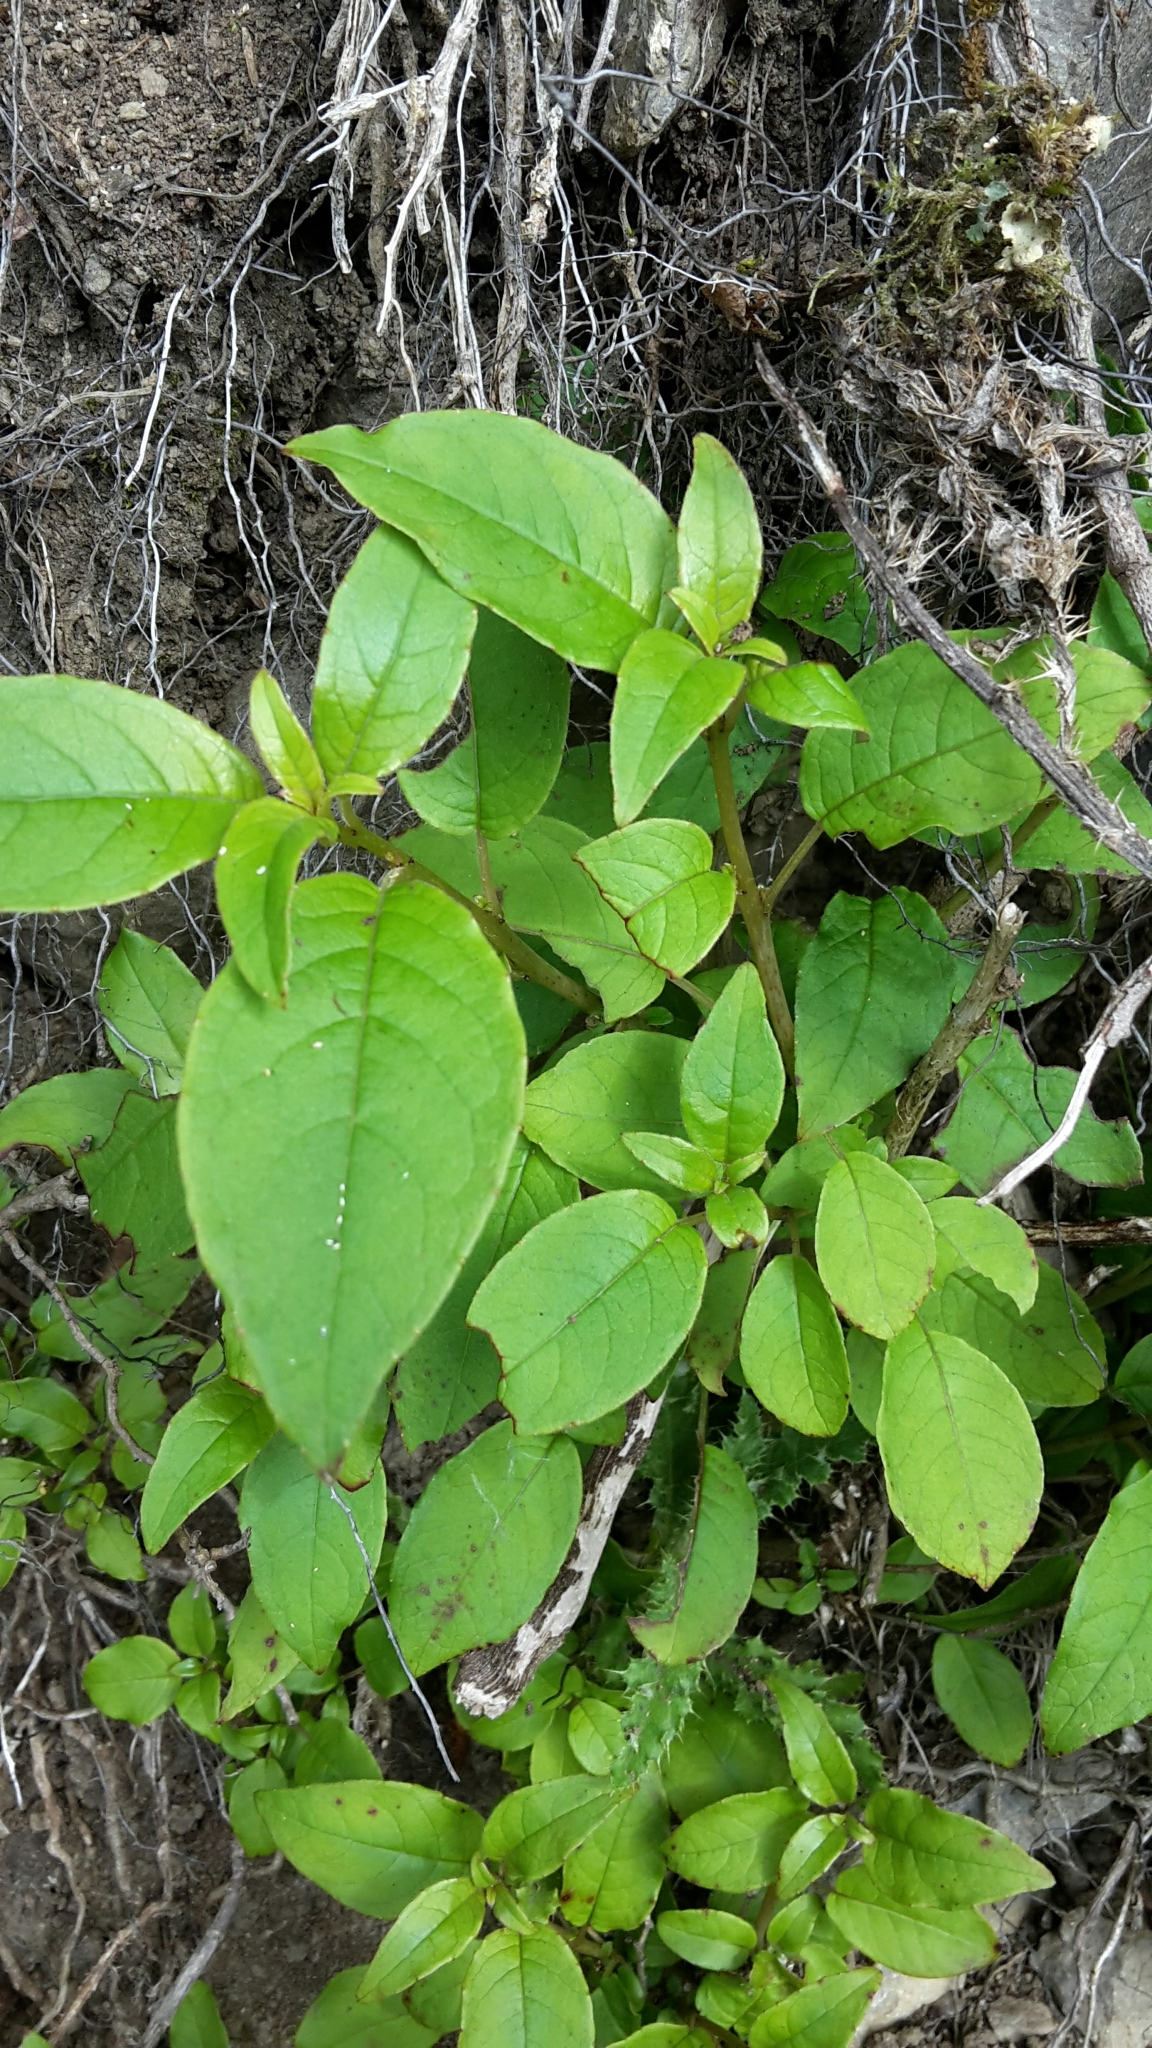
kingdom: Plantae
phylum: Tracheophyta
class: Magnoliopsida
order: Myrtales
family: Onagraceae
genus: Fuchsia
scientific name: Fuchsia excorticata
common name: Tree fuchsia
